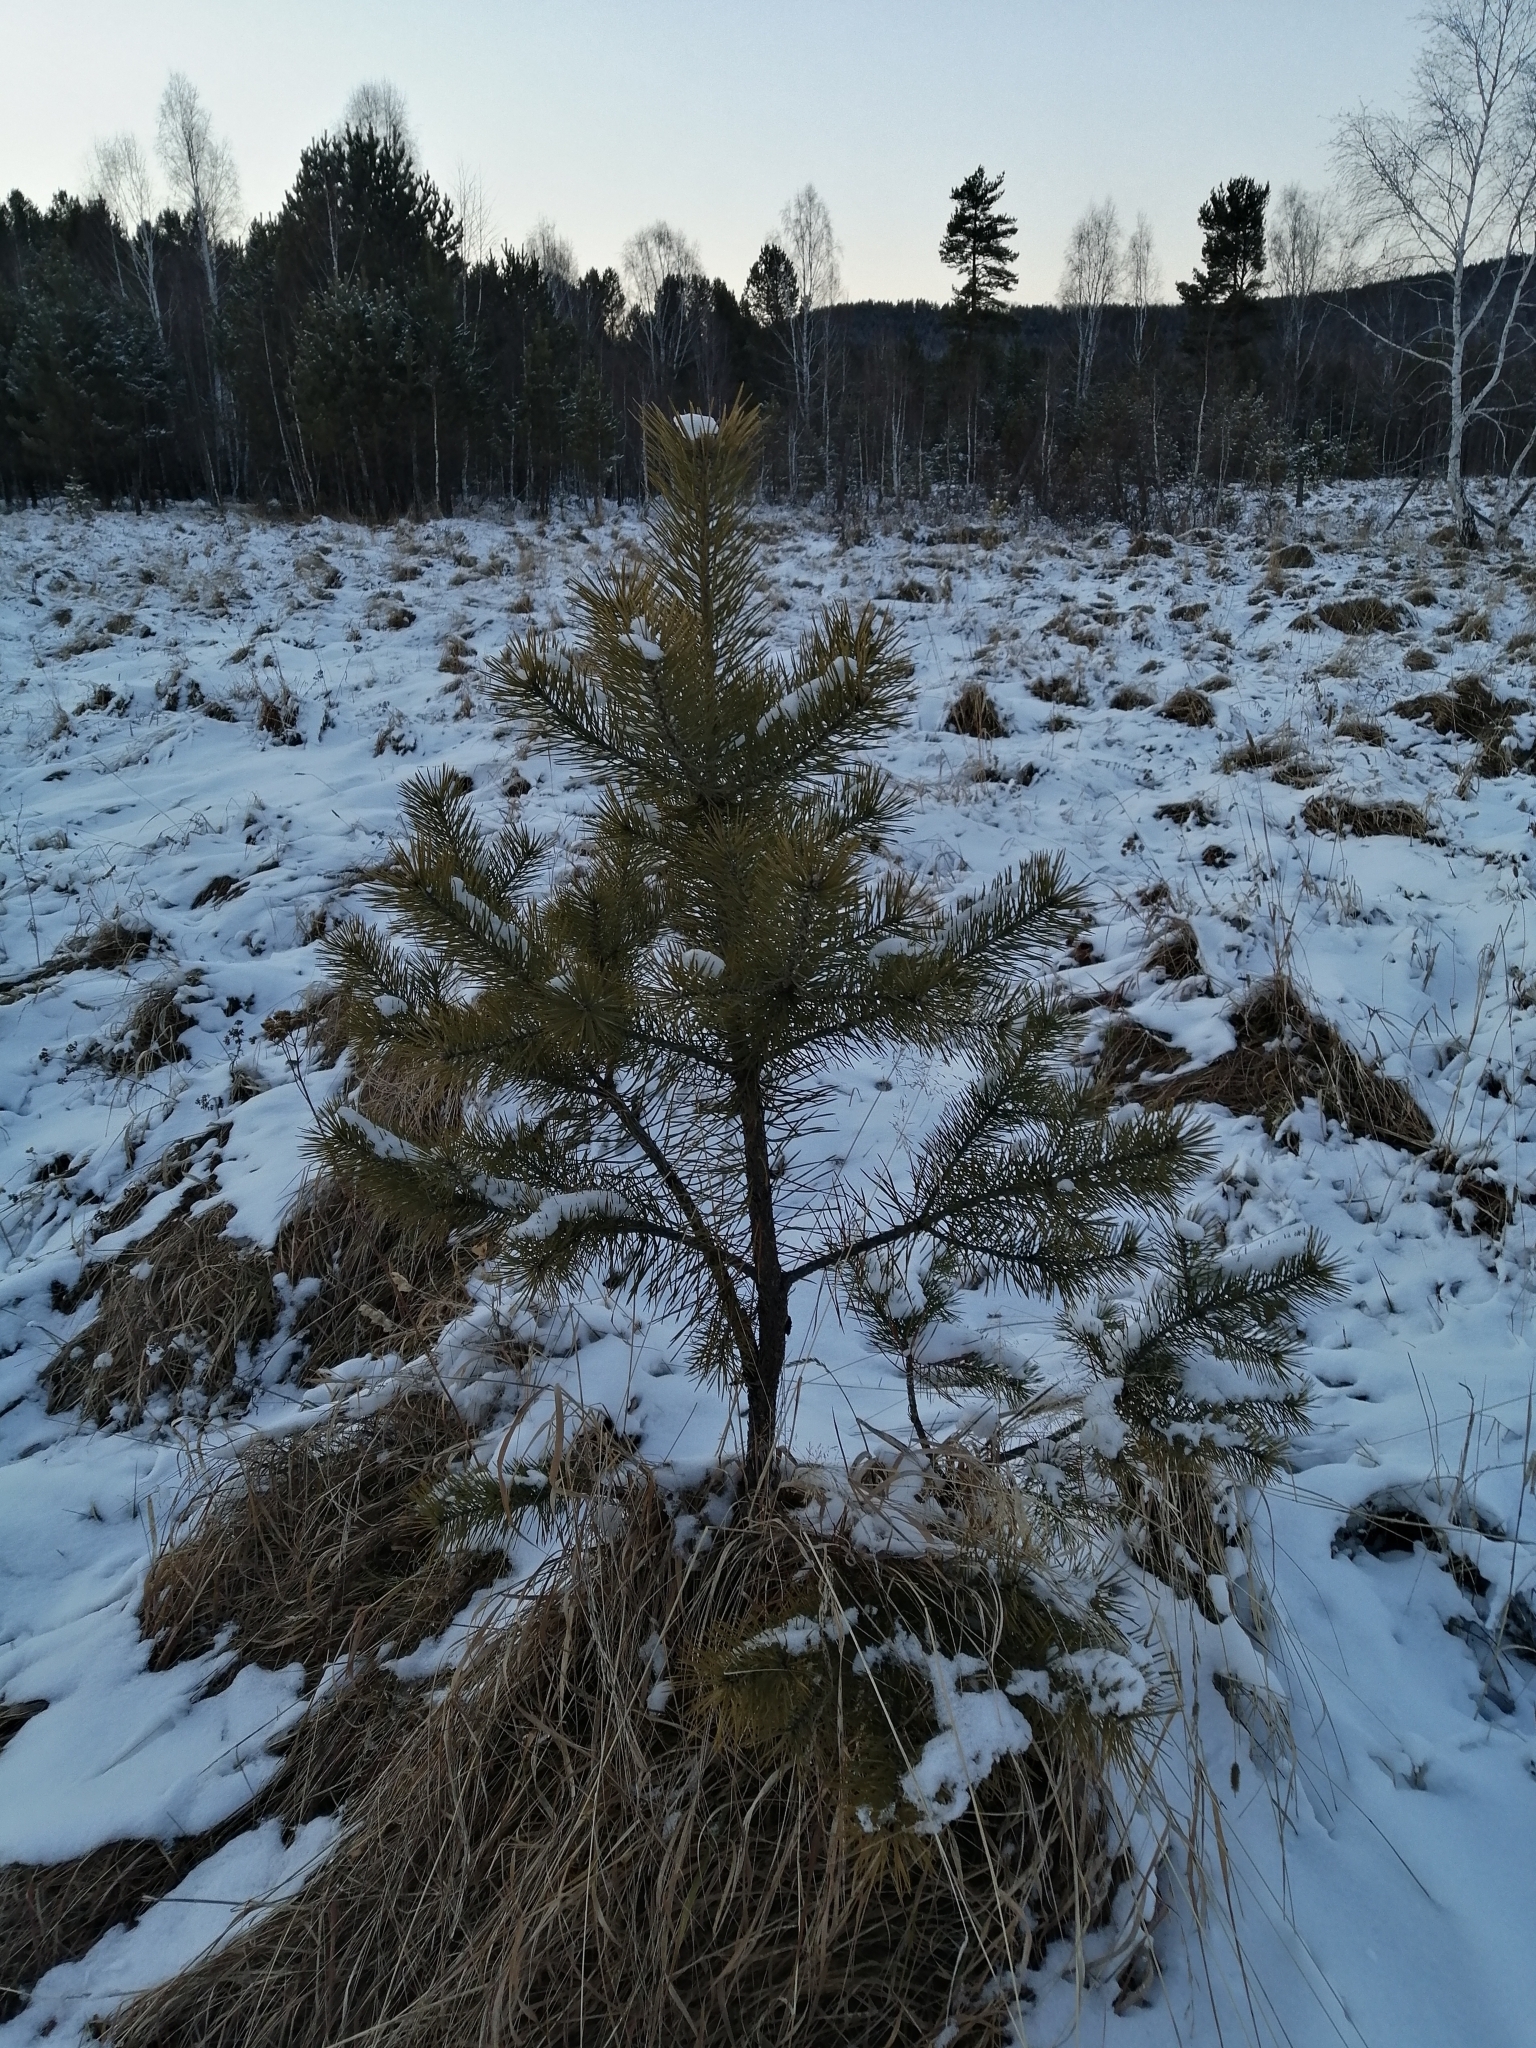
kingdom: Plantae
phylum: Tracheophyta
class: Pinopsida
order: Pinales
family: Pinaceae
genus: Pinus
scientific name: Pinus sylvestris
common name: Scots pine
